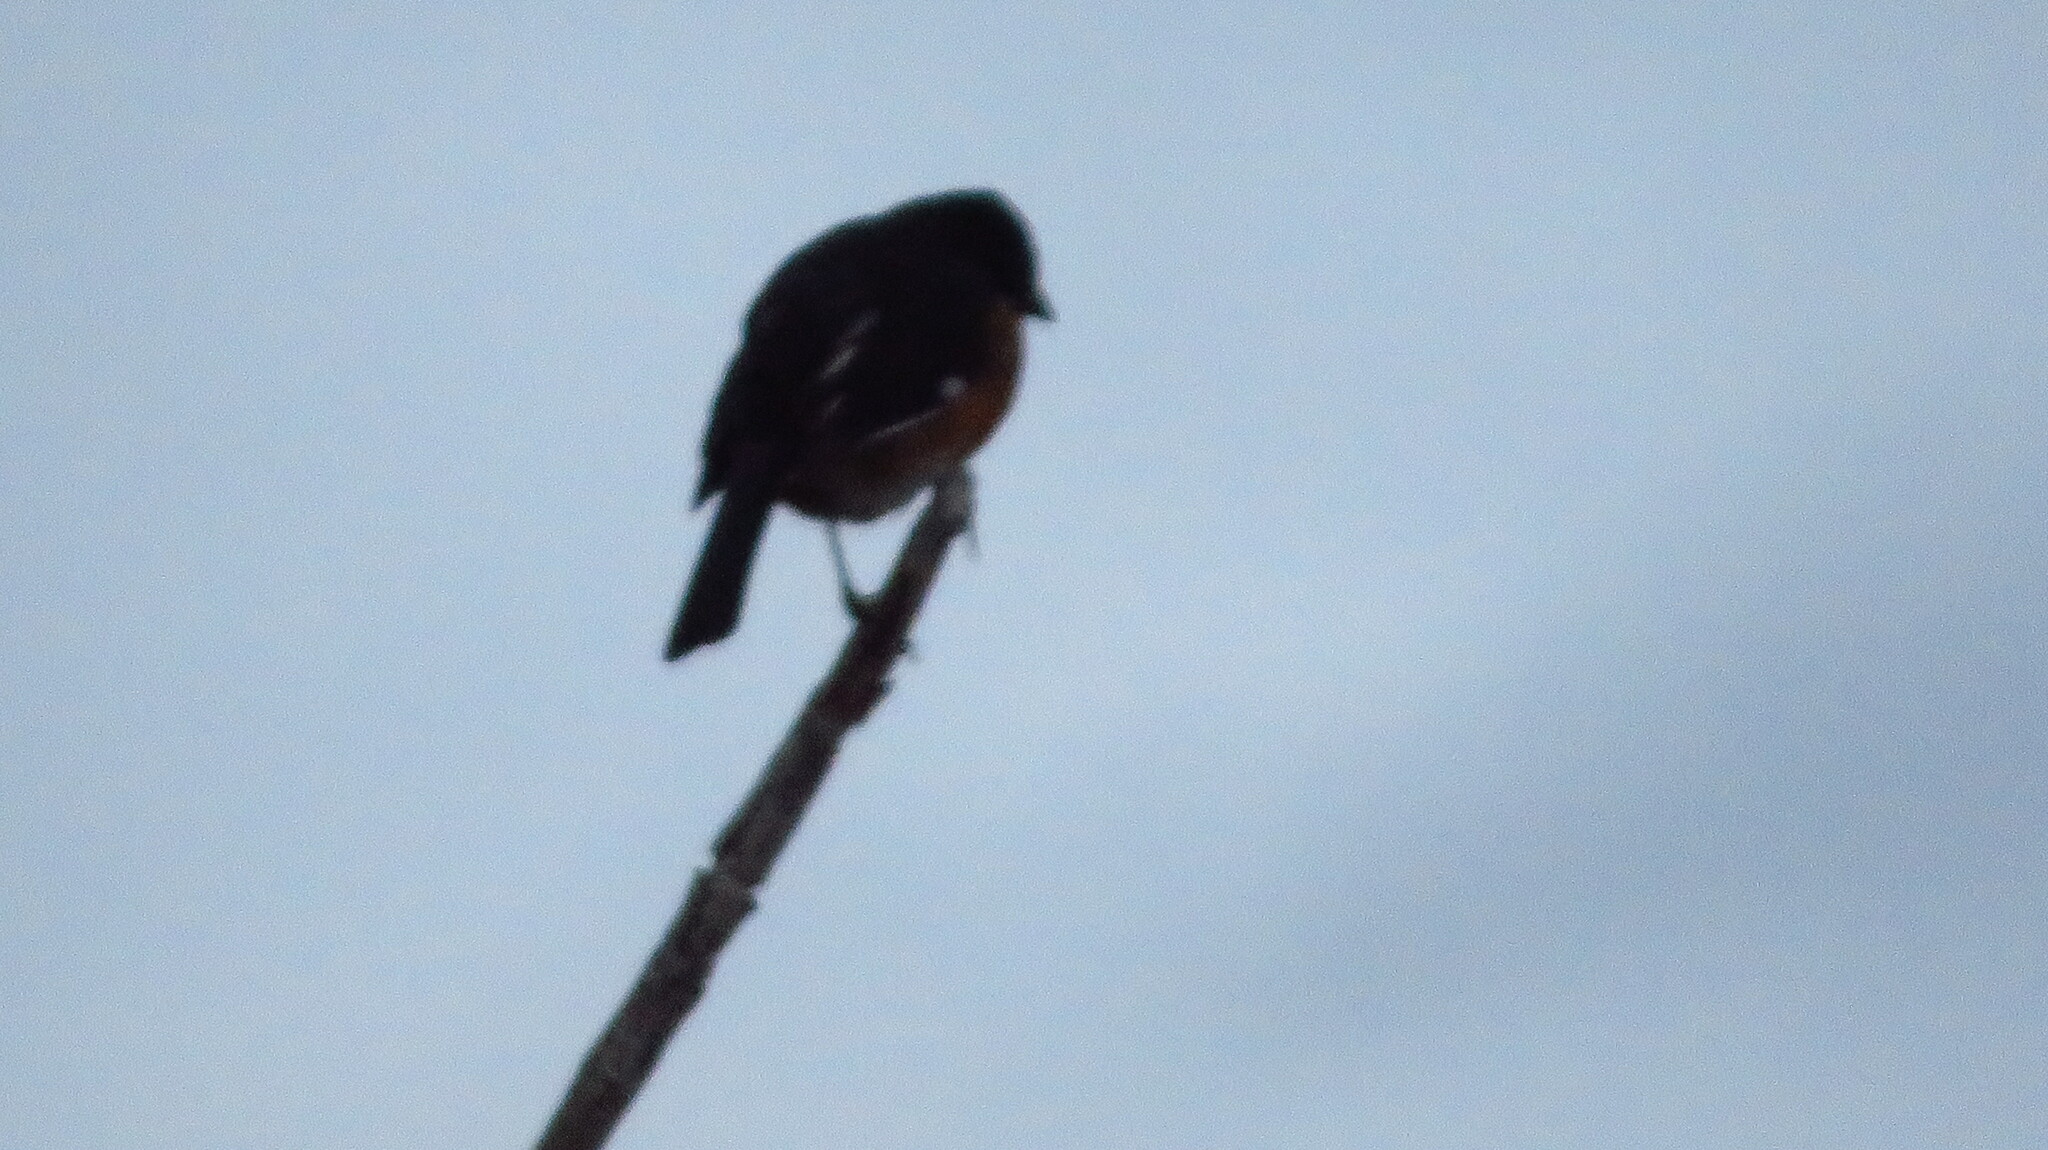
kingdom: Animalia
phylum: Chordata
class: Aves
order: Passeriformes
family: Passerellidae
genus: Pipilo
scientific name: Pipilo erythrophthalmus
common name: Eastern towhee
